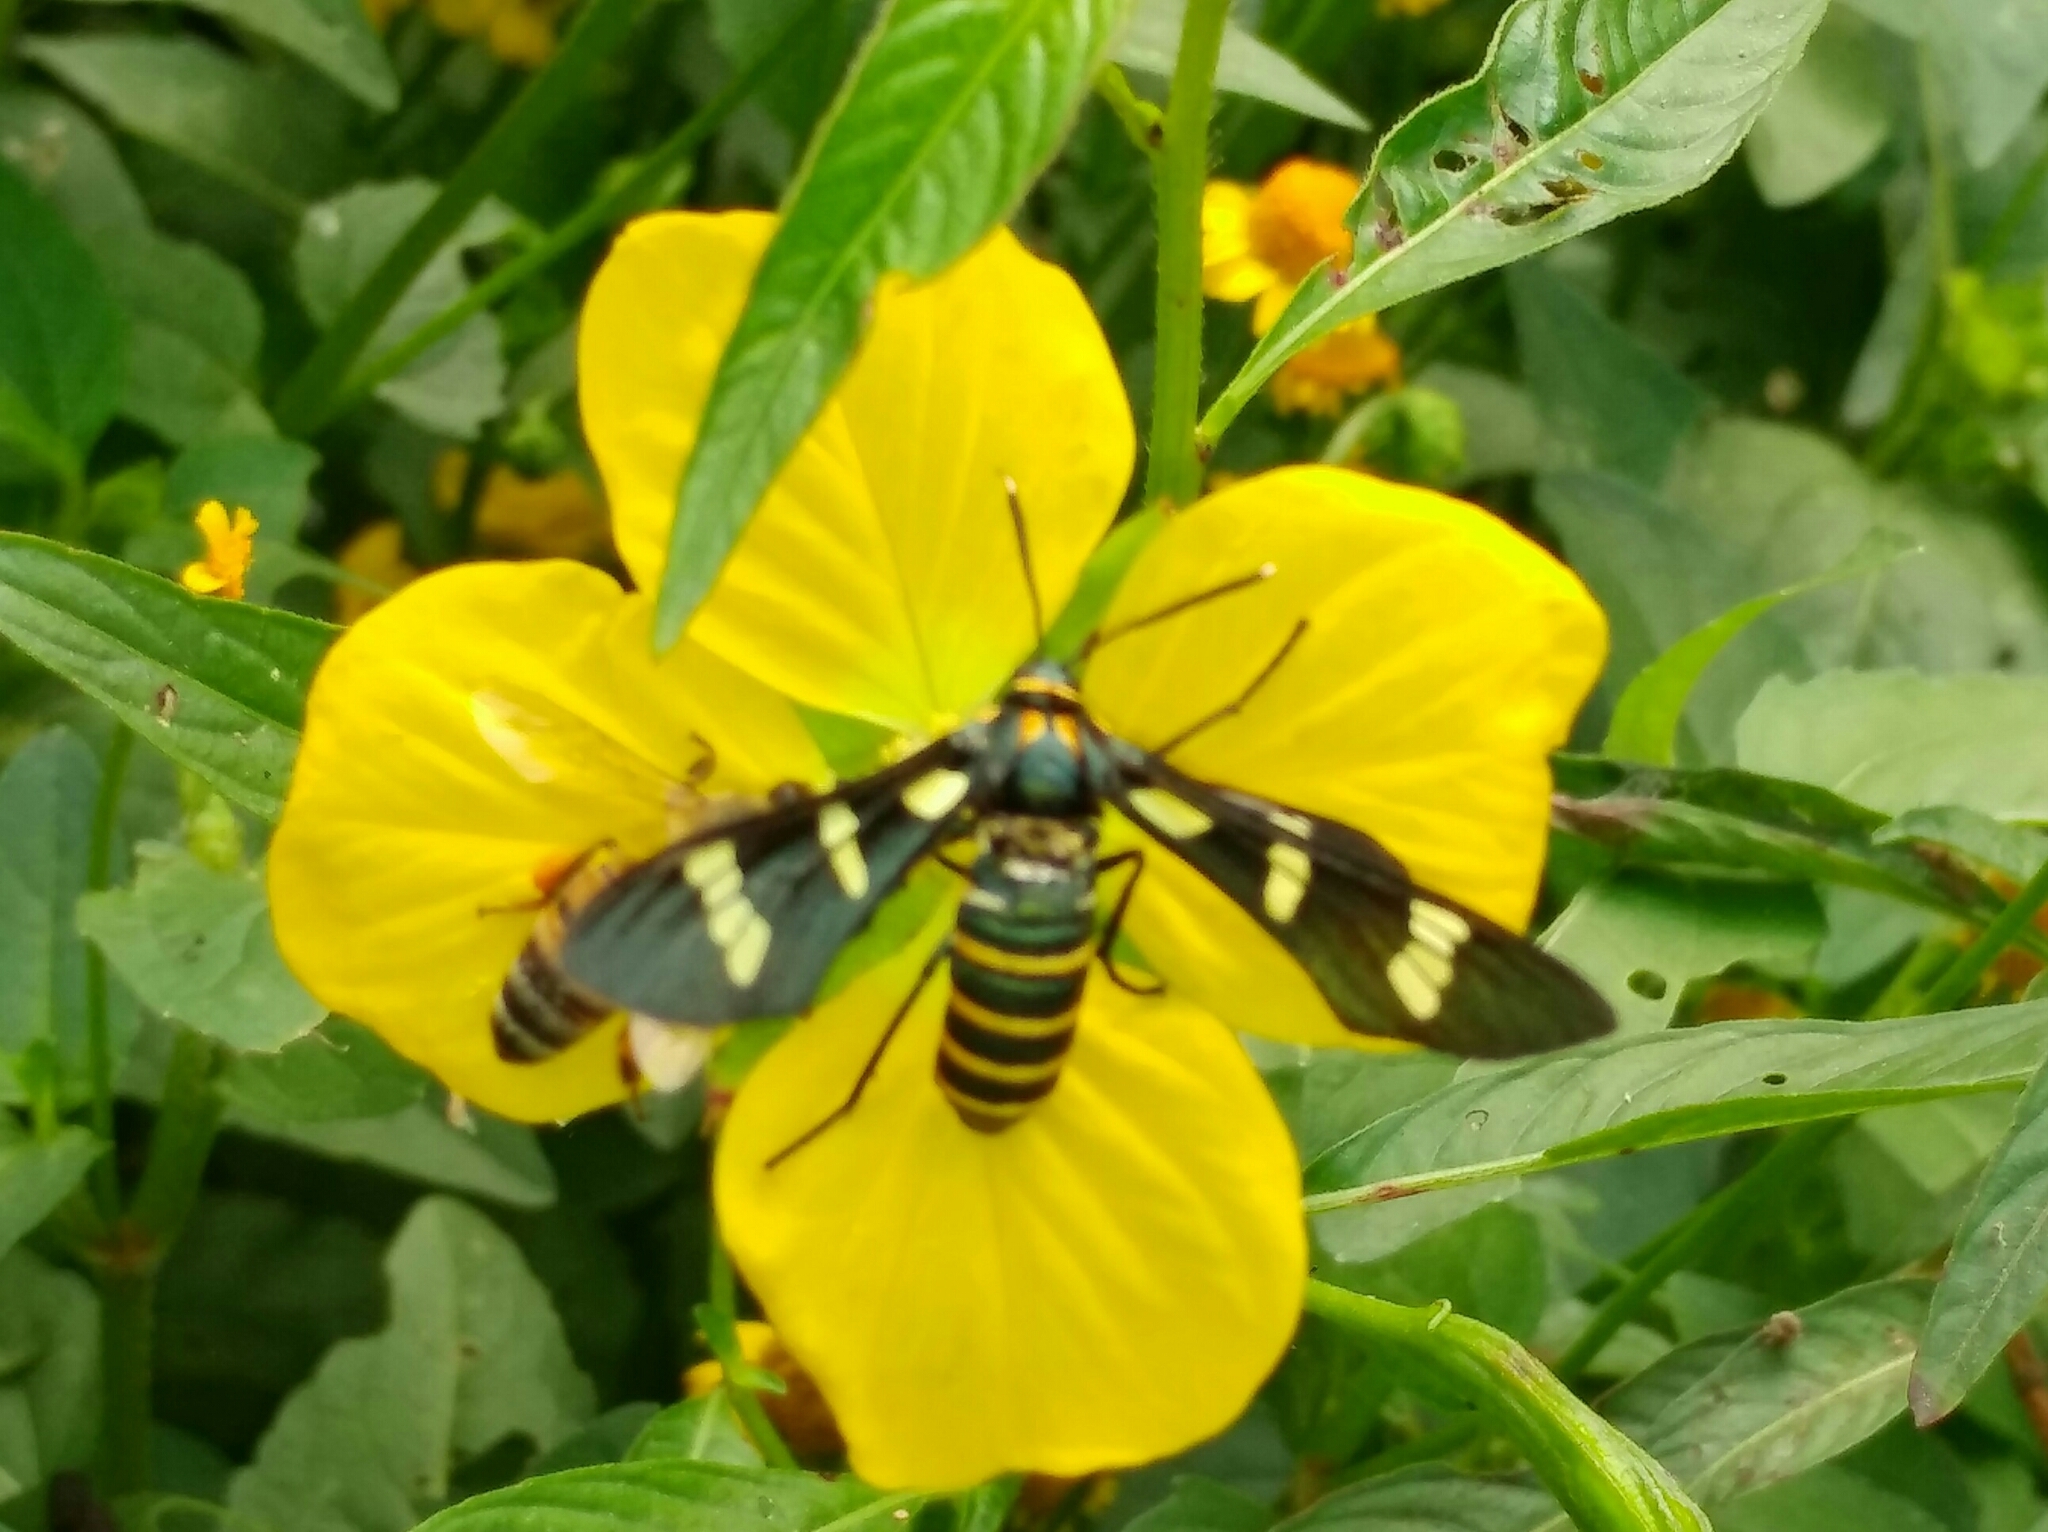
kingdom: Animalia
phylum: Arthropoda
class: Insecta
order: Lepidoptera
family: Erebidae
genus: Syntomeida
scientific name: Syntomeida melanthus
